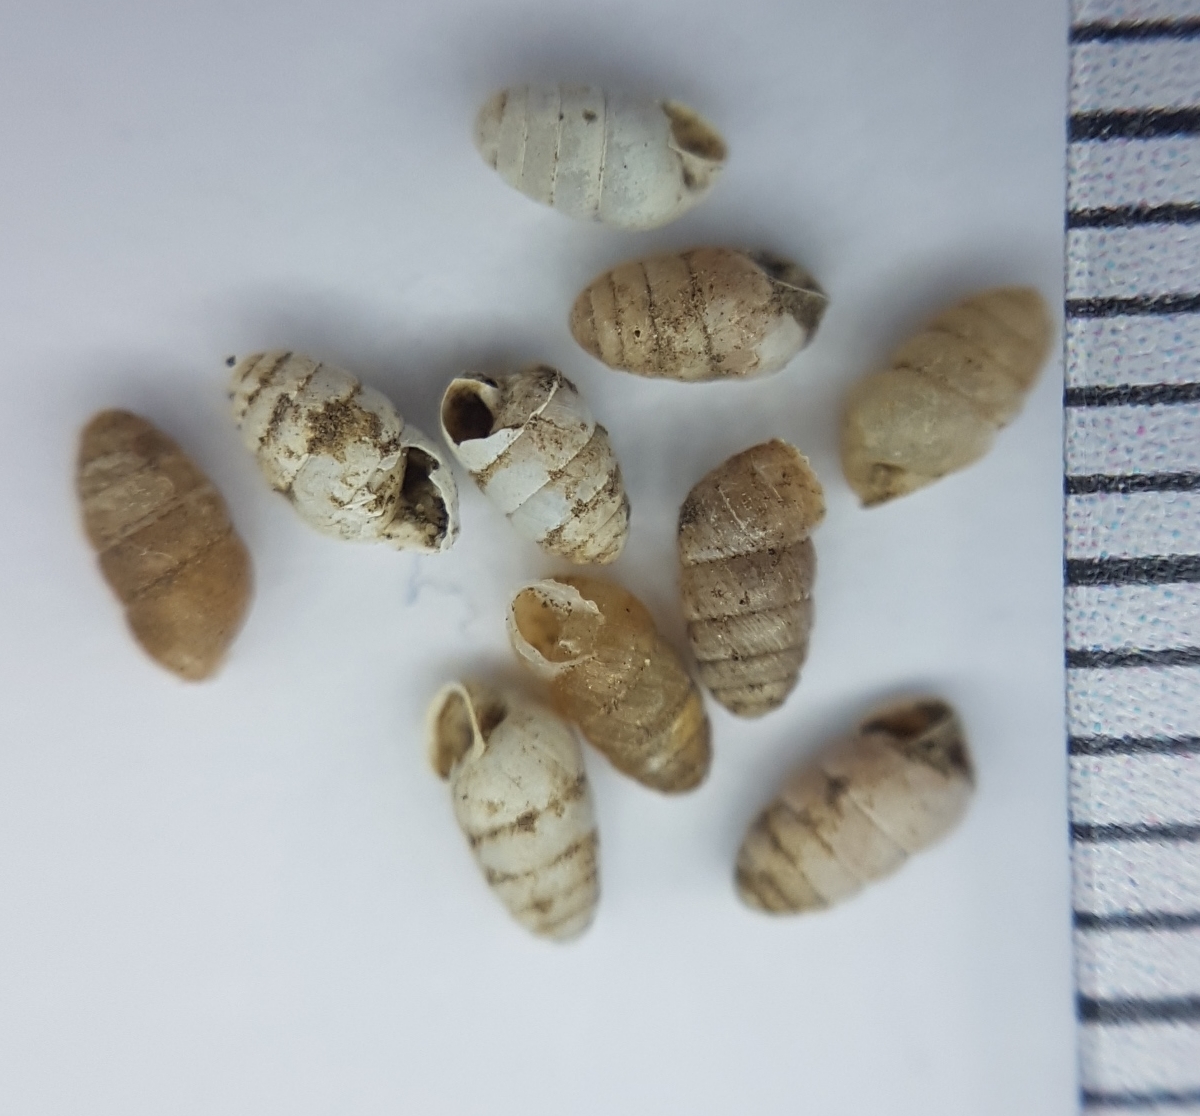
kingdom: Animalia
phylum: Mollusca
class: Gastropoda
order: Stylommatophora
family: Lauriidae
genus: Lauria
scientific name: Lauria cylindracea
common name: Common chrysalis snail
